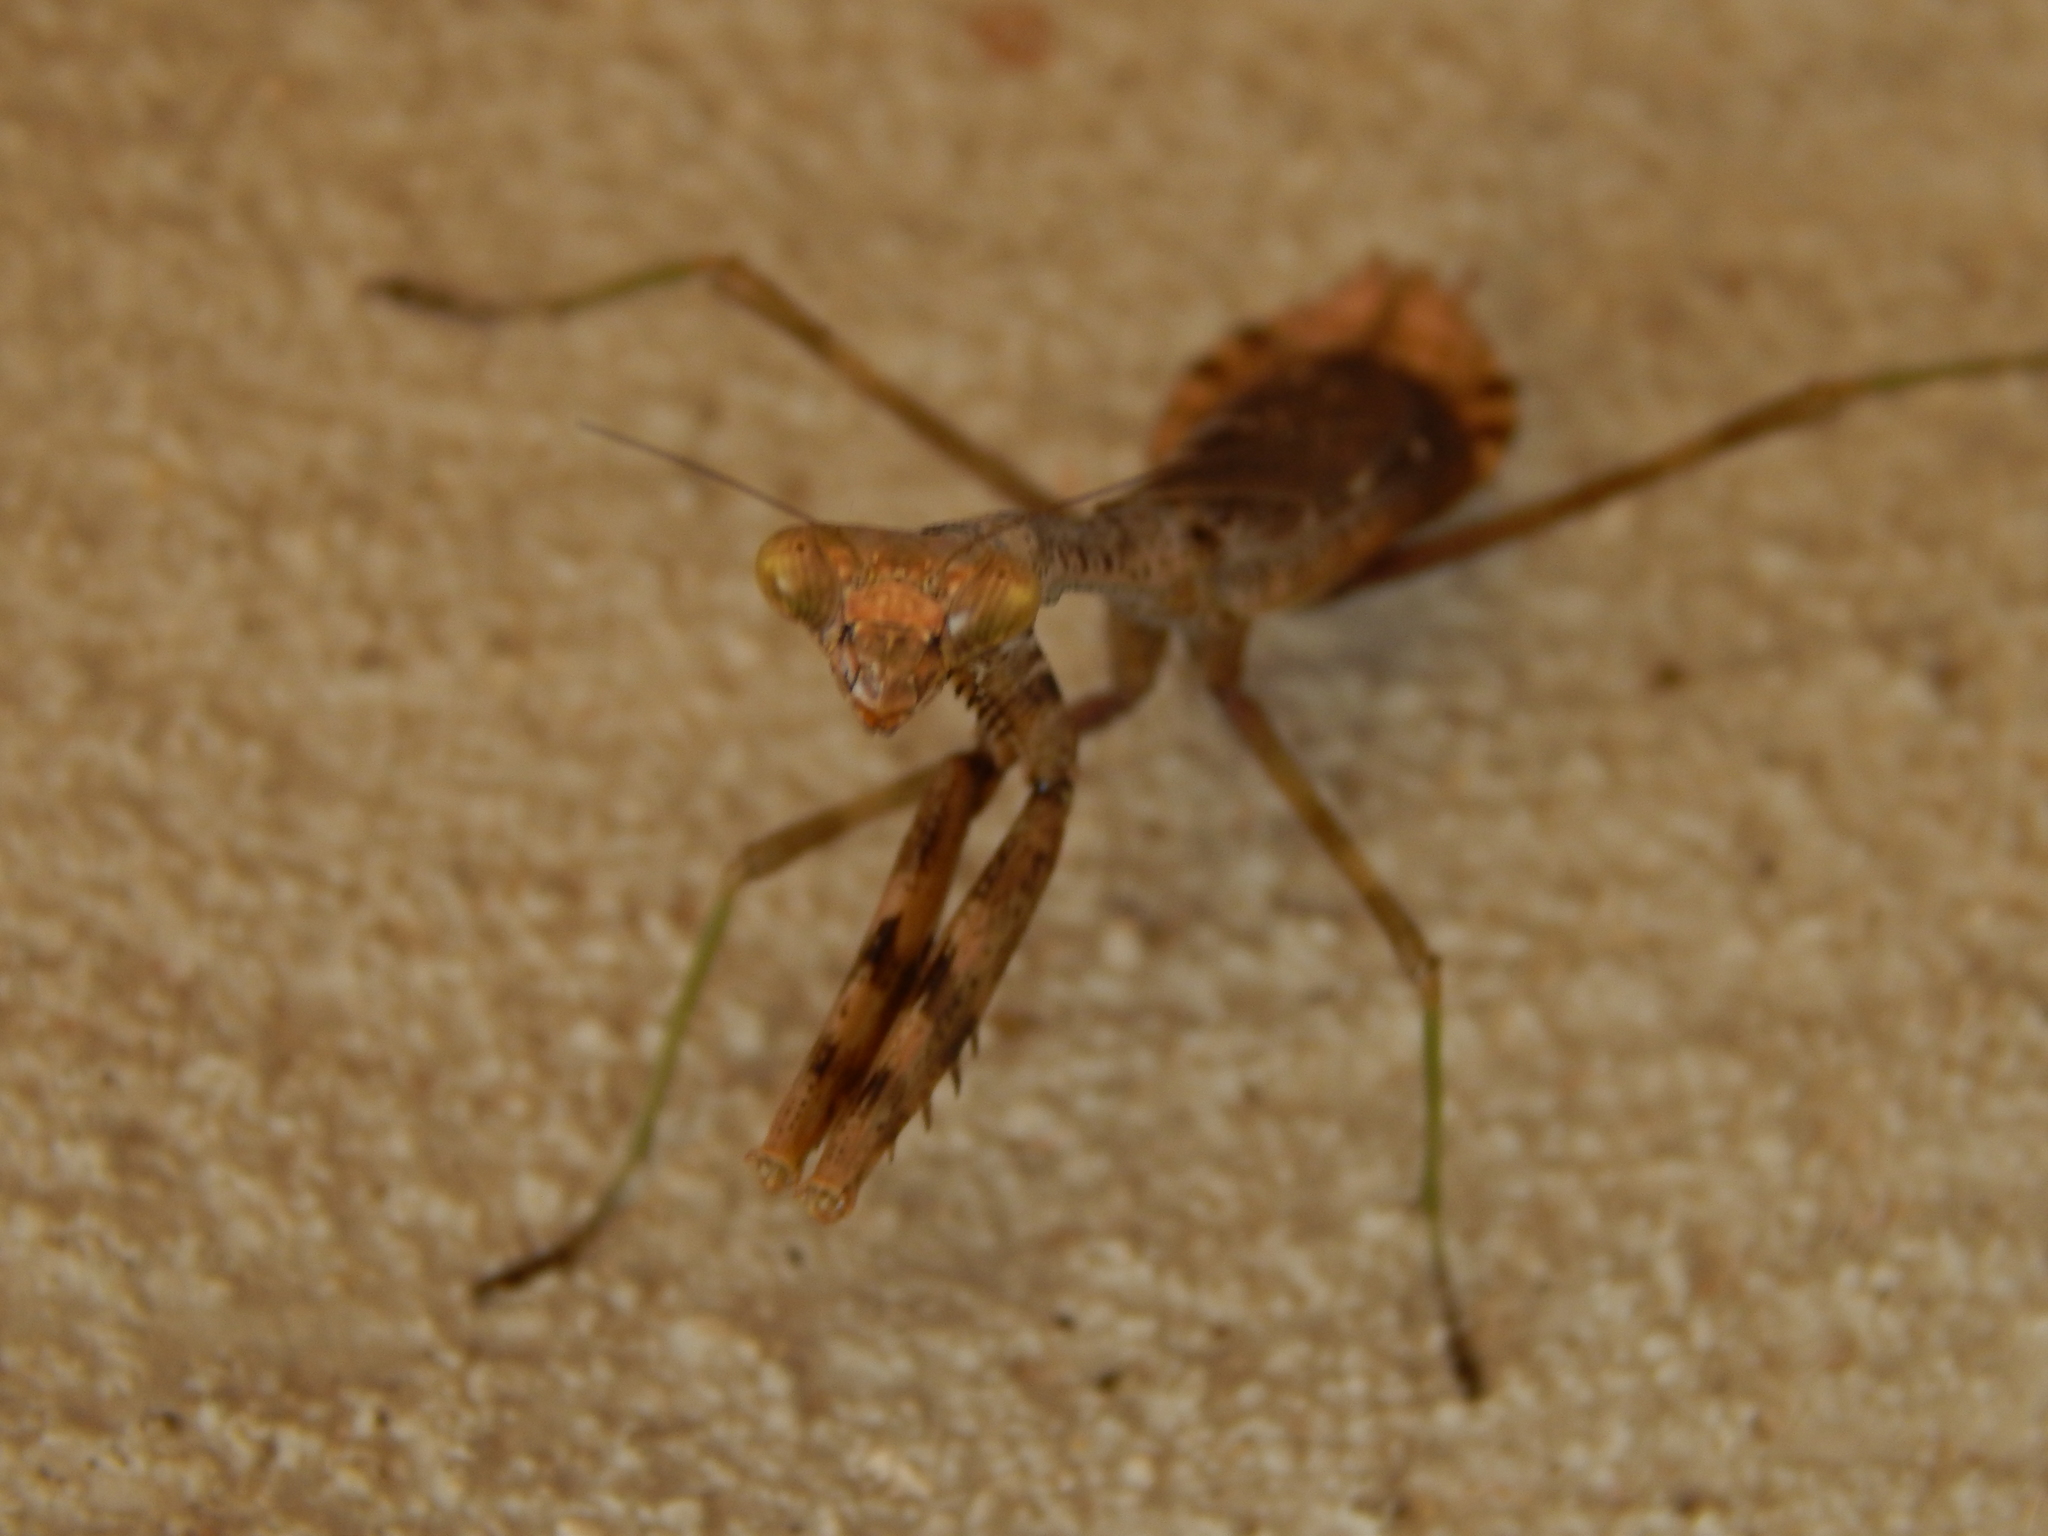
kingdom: Animalia
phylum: Arthropoda
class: Insecta
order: Mantodea
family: Mantidae
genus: Stagmomantis
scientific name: Stagmomantis carolina
